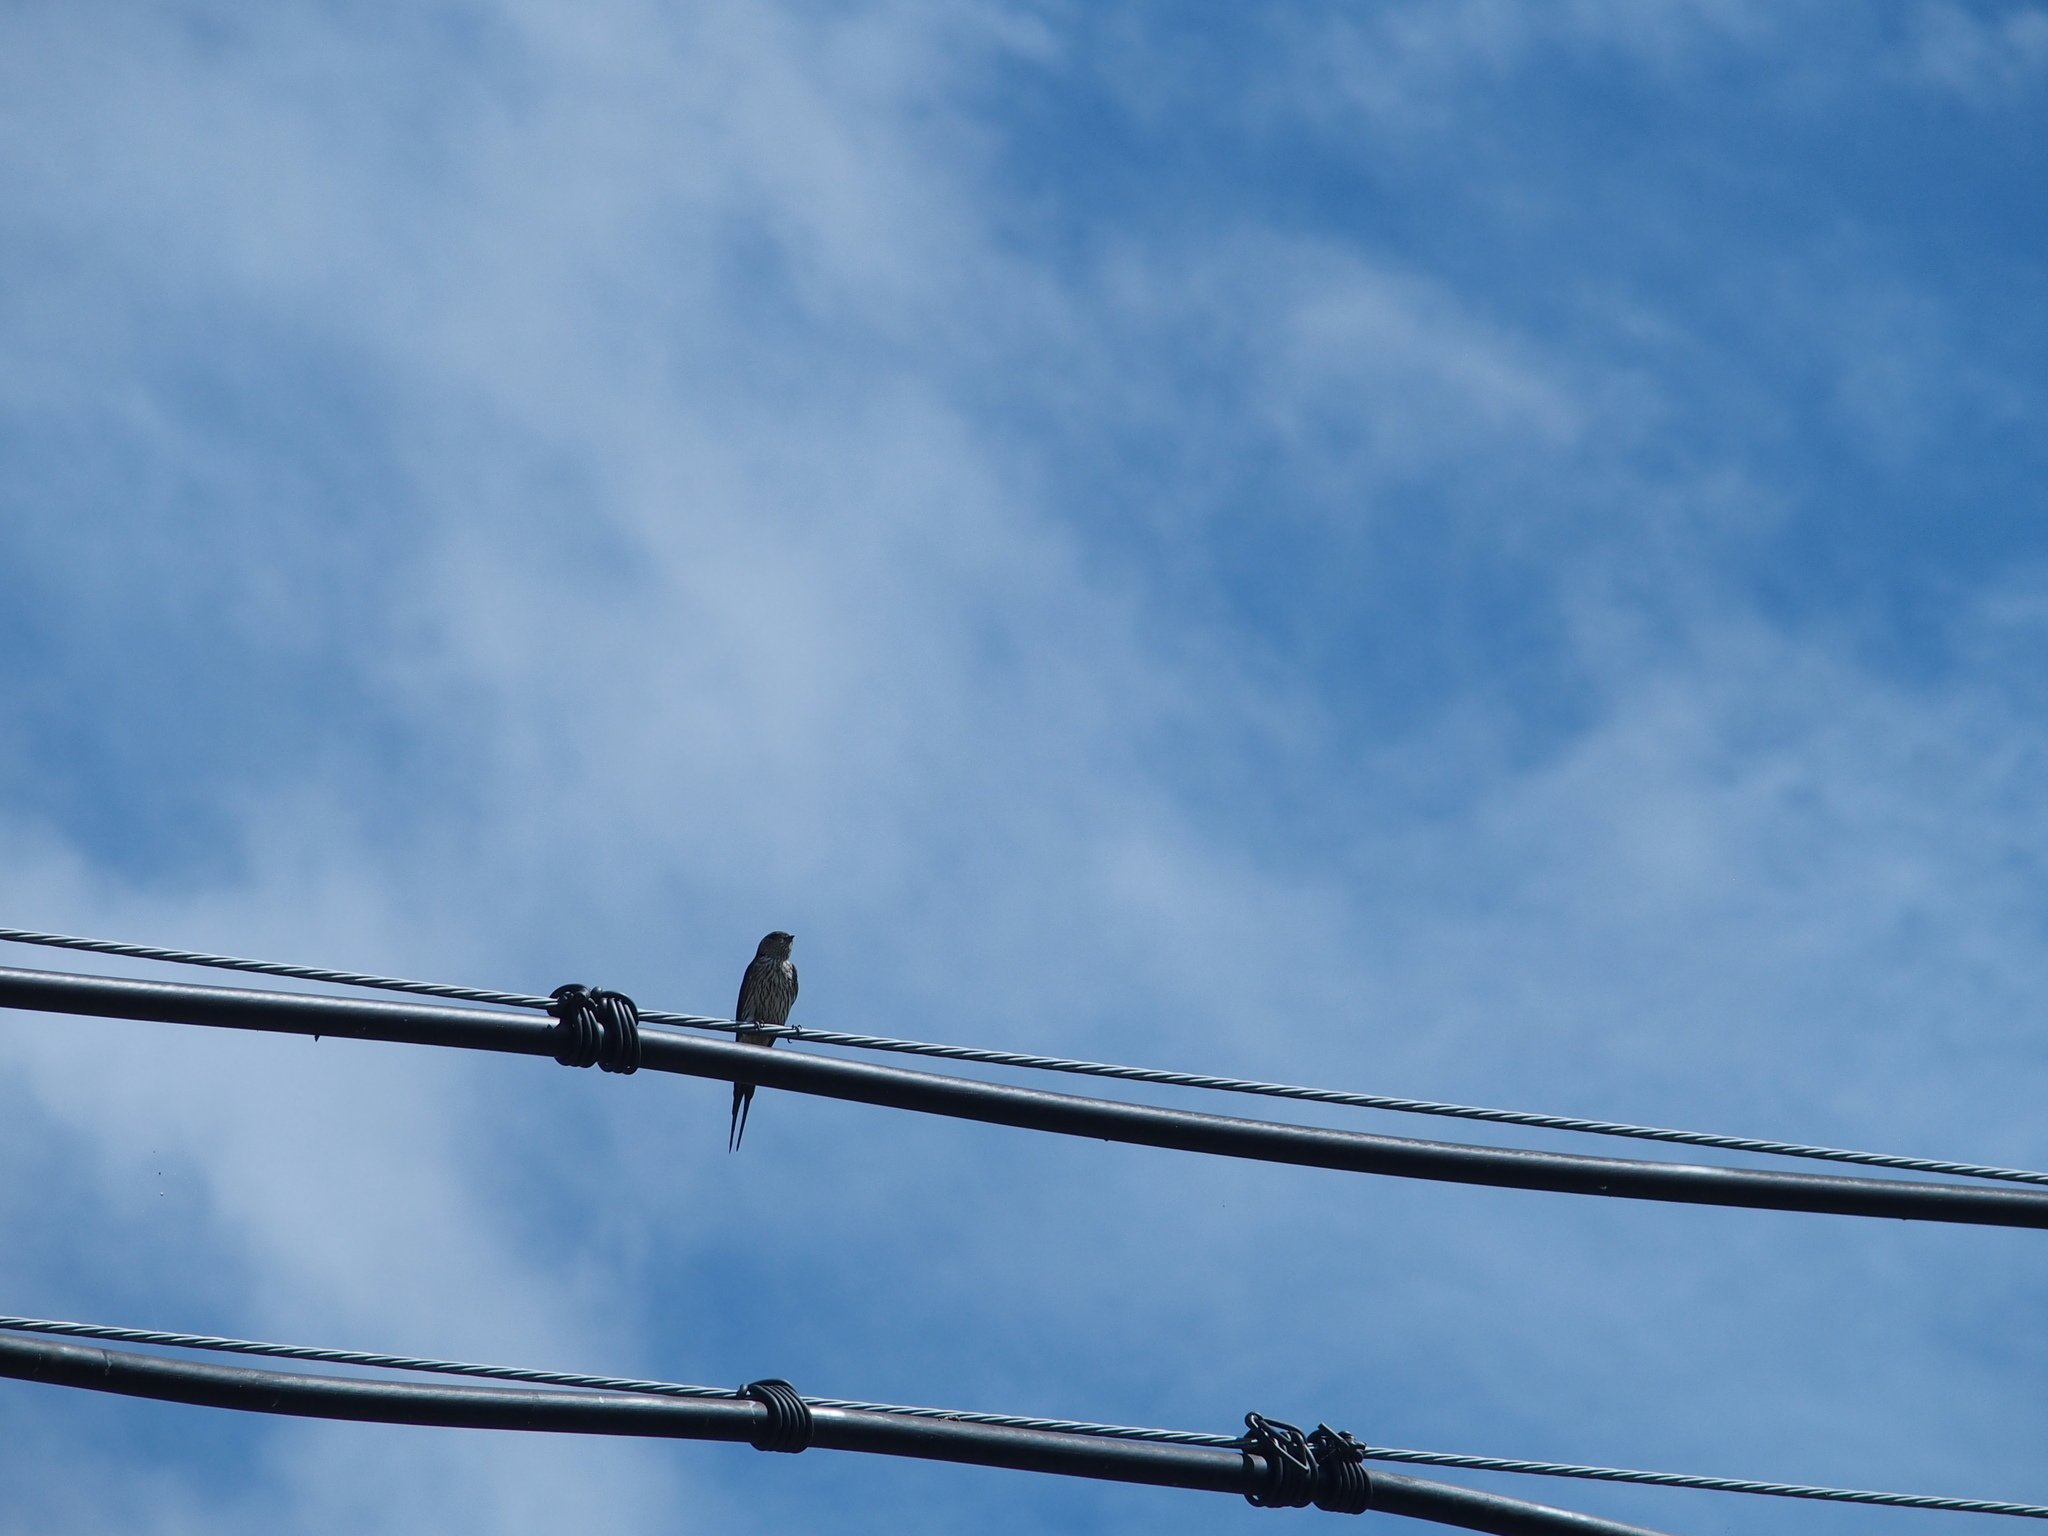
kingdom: Animalia
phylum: Chordata
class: Aves
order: Passeriformes
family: Hirundinidae
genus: Cecropis
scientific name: Cecropis striolata
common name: Striated swallow
